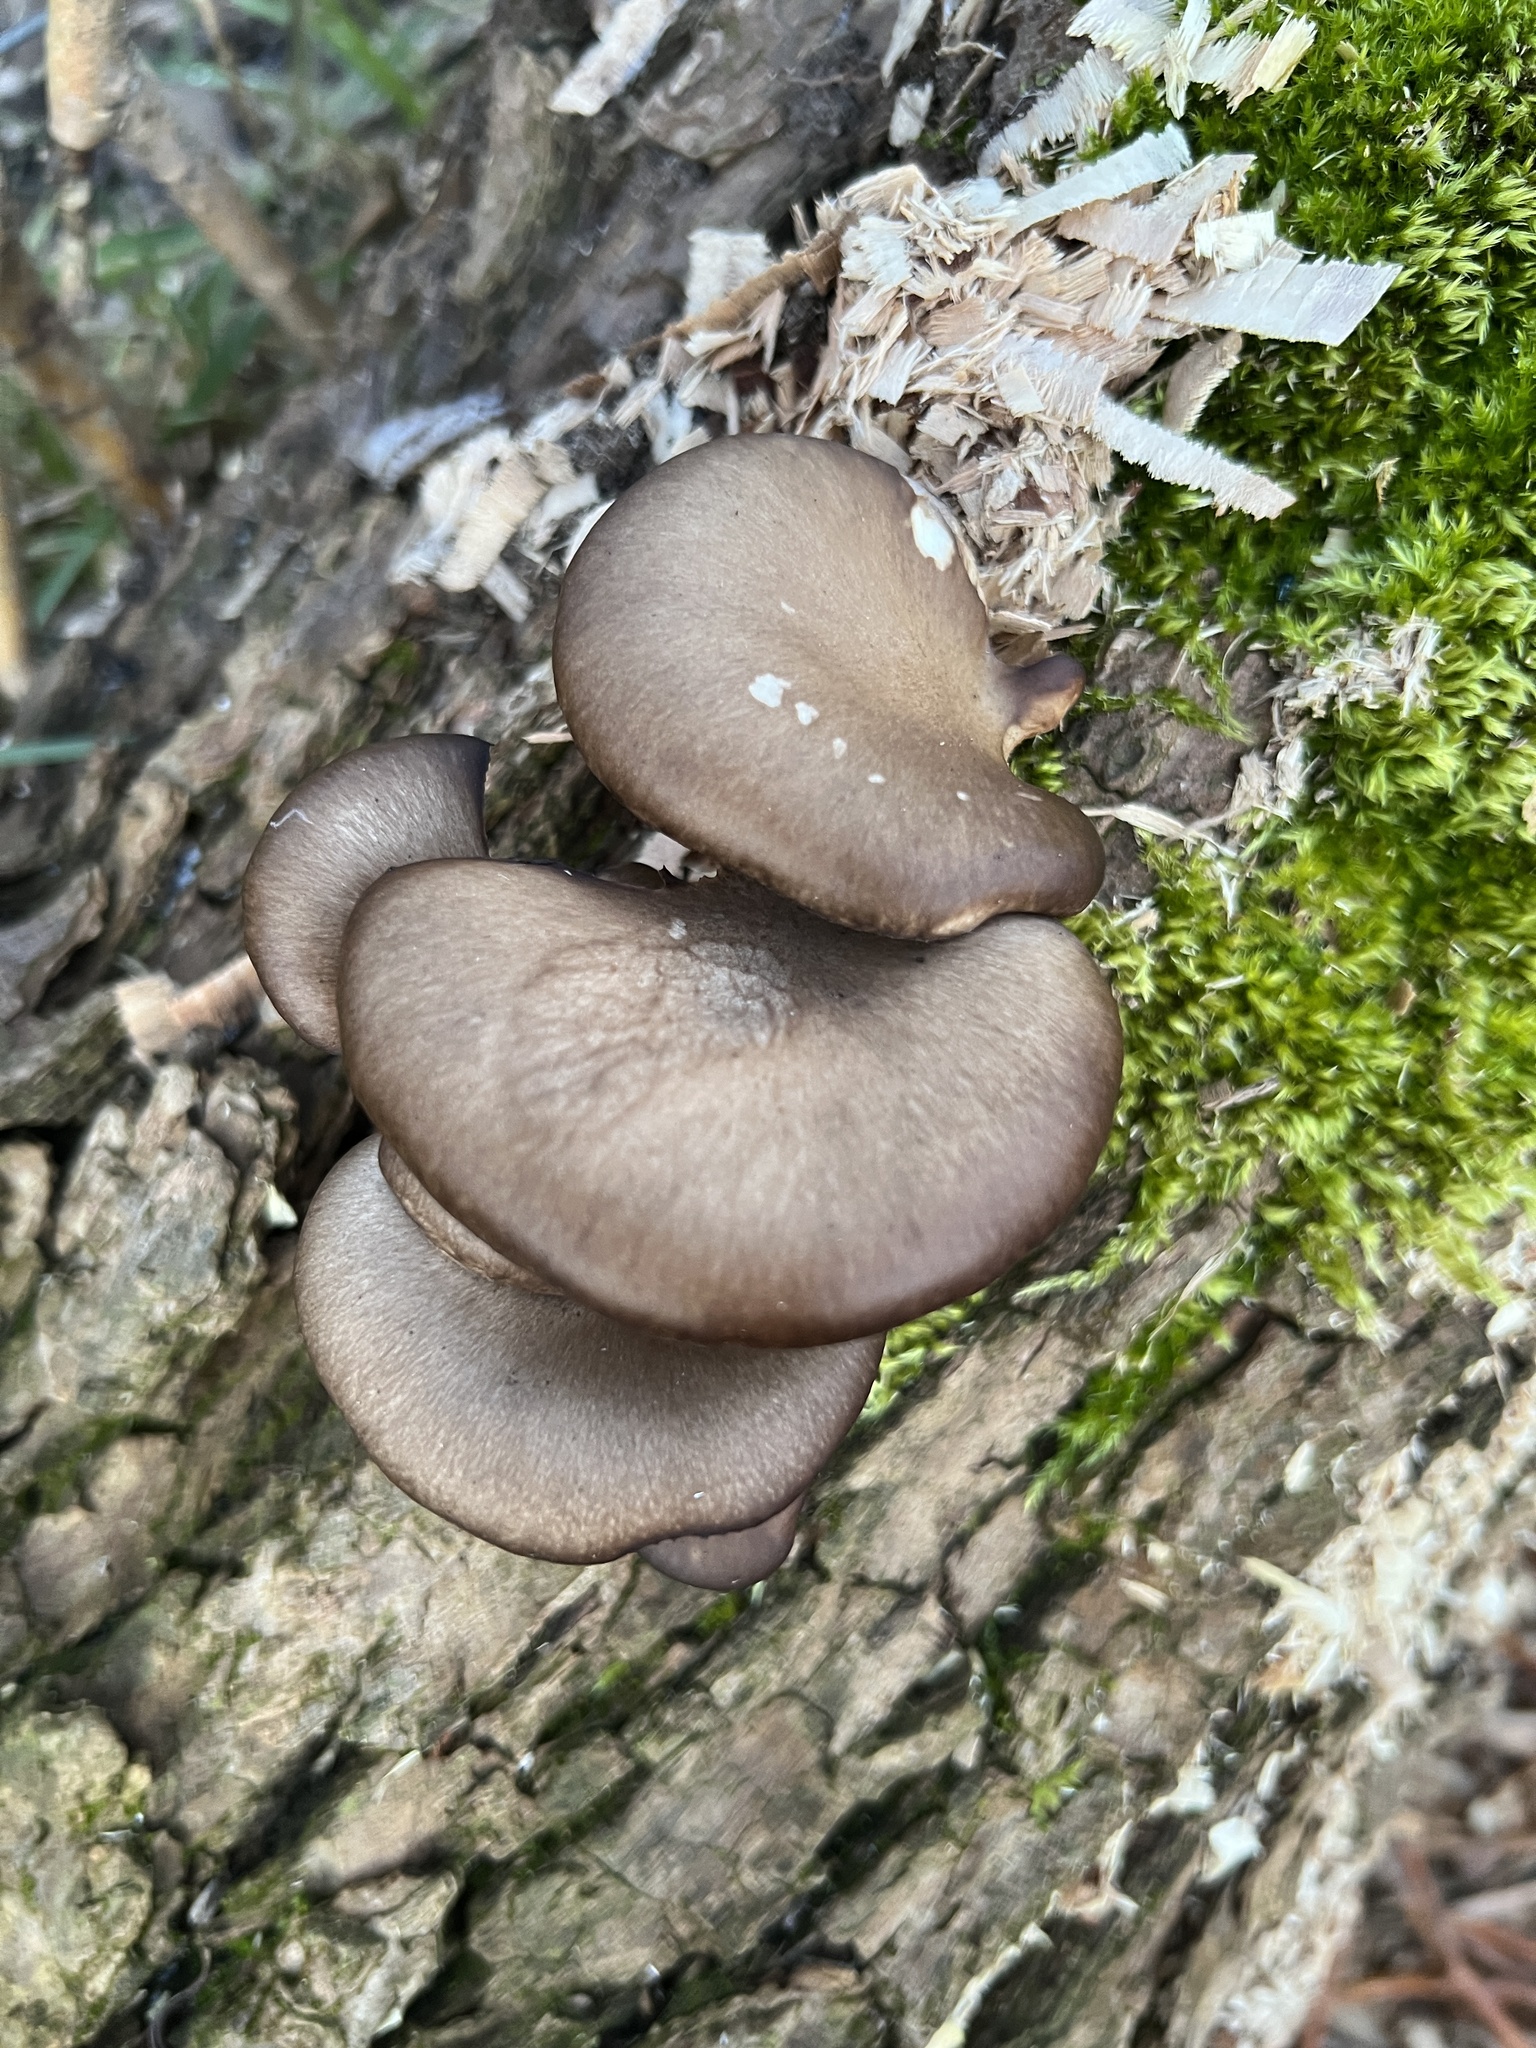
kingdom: Fungi
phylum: Basidiomycota
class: Agaricomycetes
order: Agaricales
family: Pleurotaceae
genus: Pleurotus
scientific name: Pleurotus ostreatus
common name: Oyster mushroom
